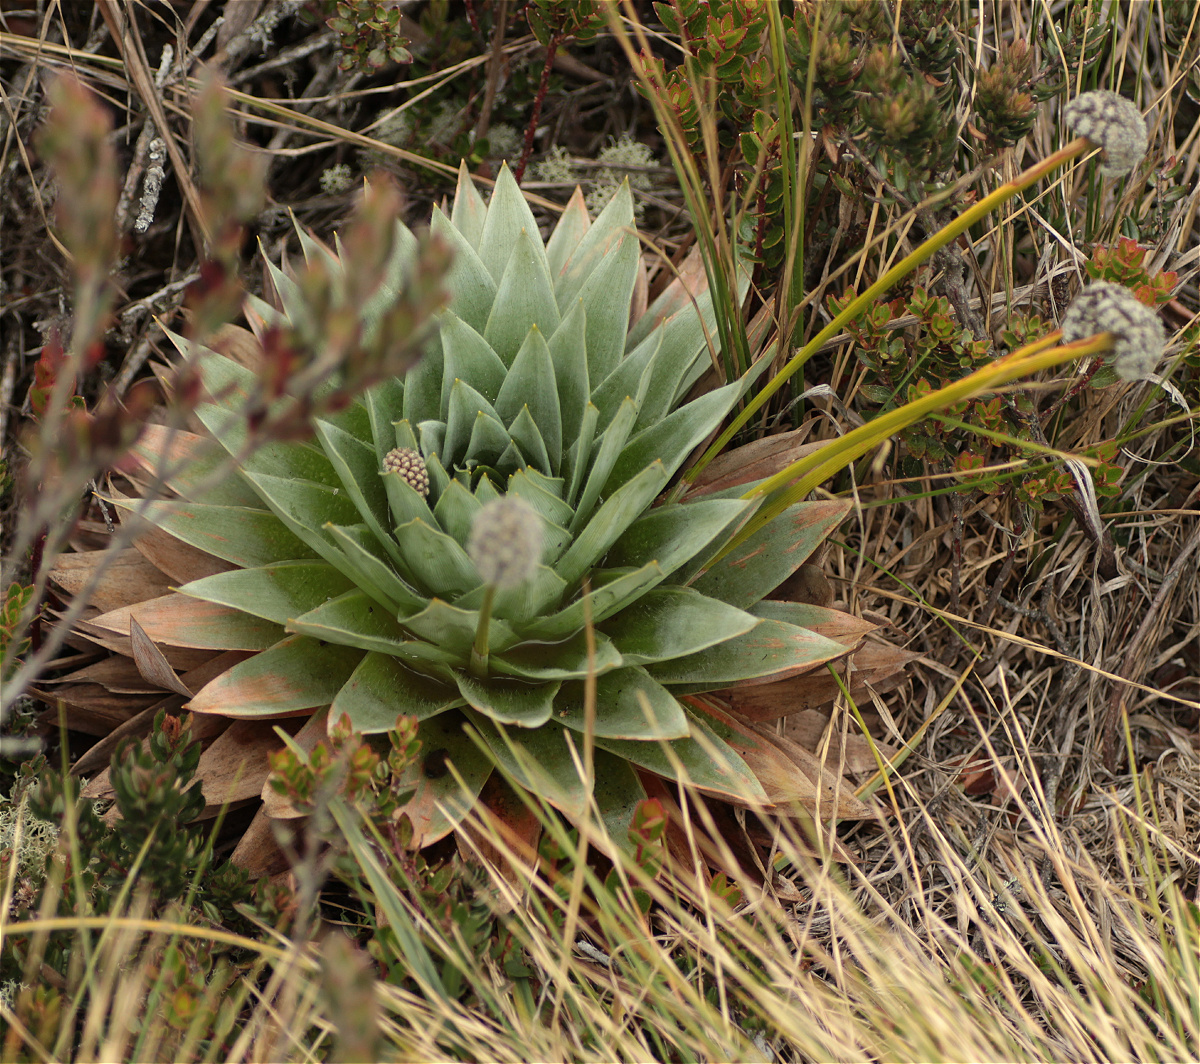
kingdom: Plantae
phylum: Tracheophyta
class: Liliopsida
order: Poales
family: Eriocaulaceae
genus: Paepalanthus
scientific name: Paepalanthus alpinus
